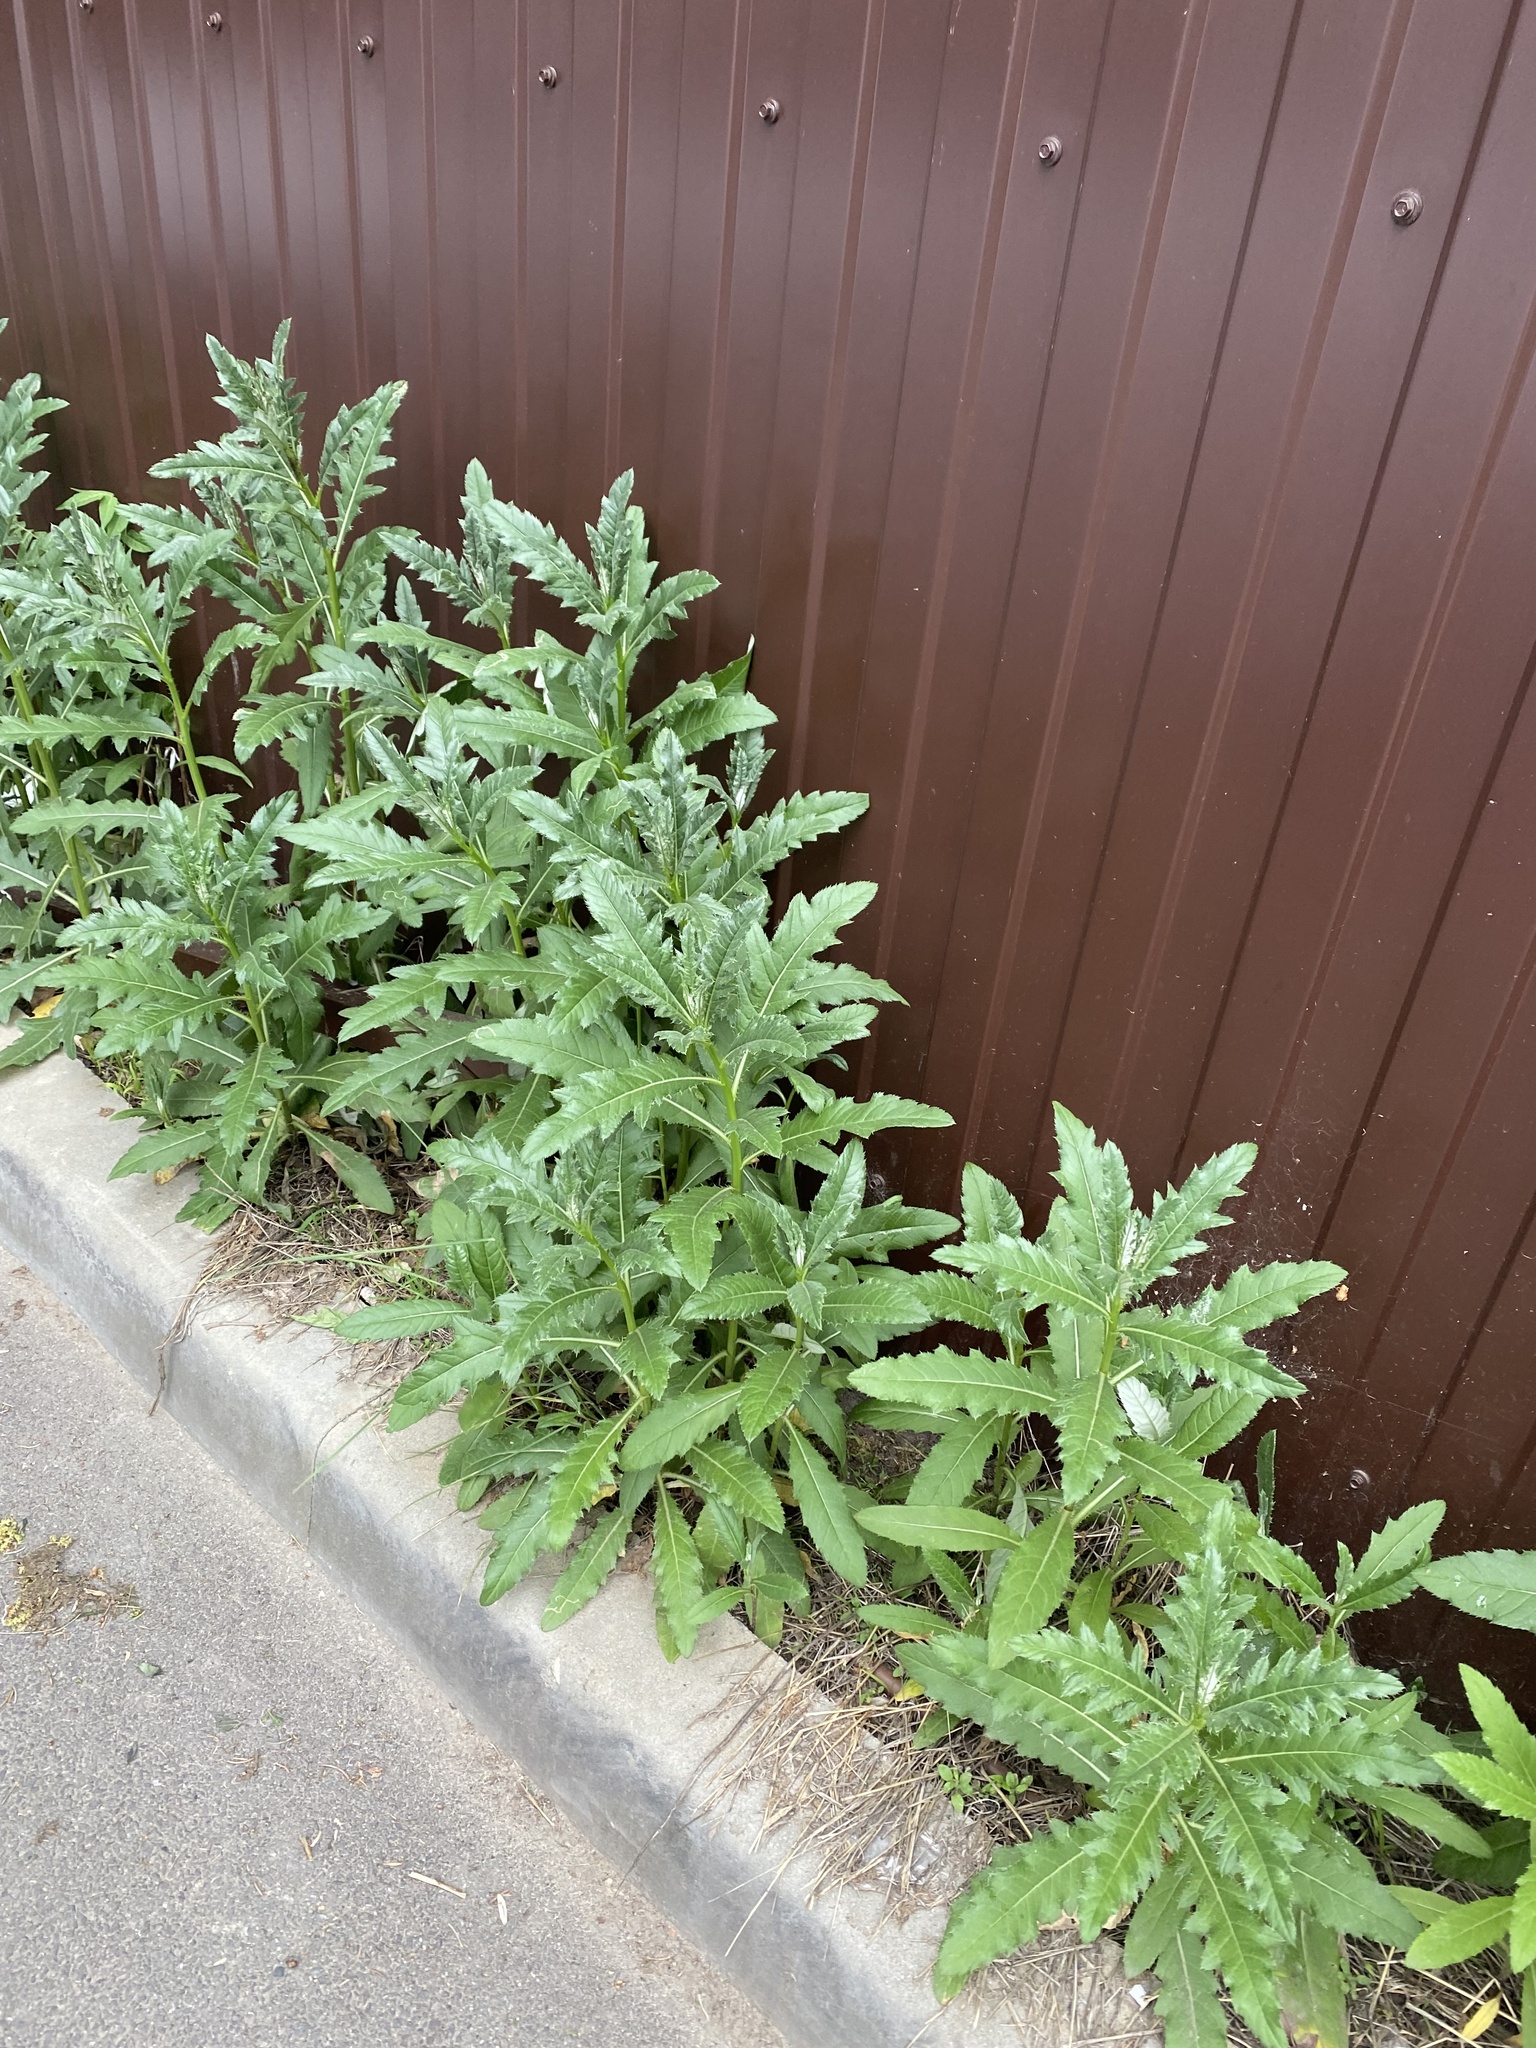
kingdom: Plantae
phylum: Tracheophyta
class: Magnoliopsida
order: Asterales
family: Asteraceae
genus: Cirsium
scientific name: Cirsium arvense
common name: Creeping thistle
